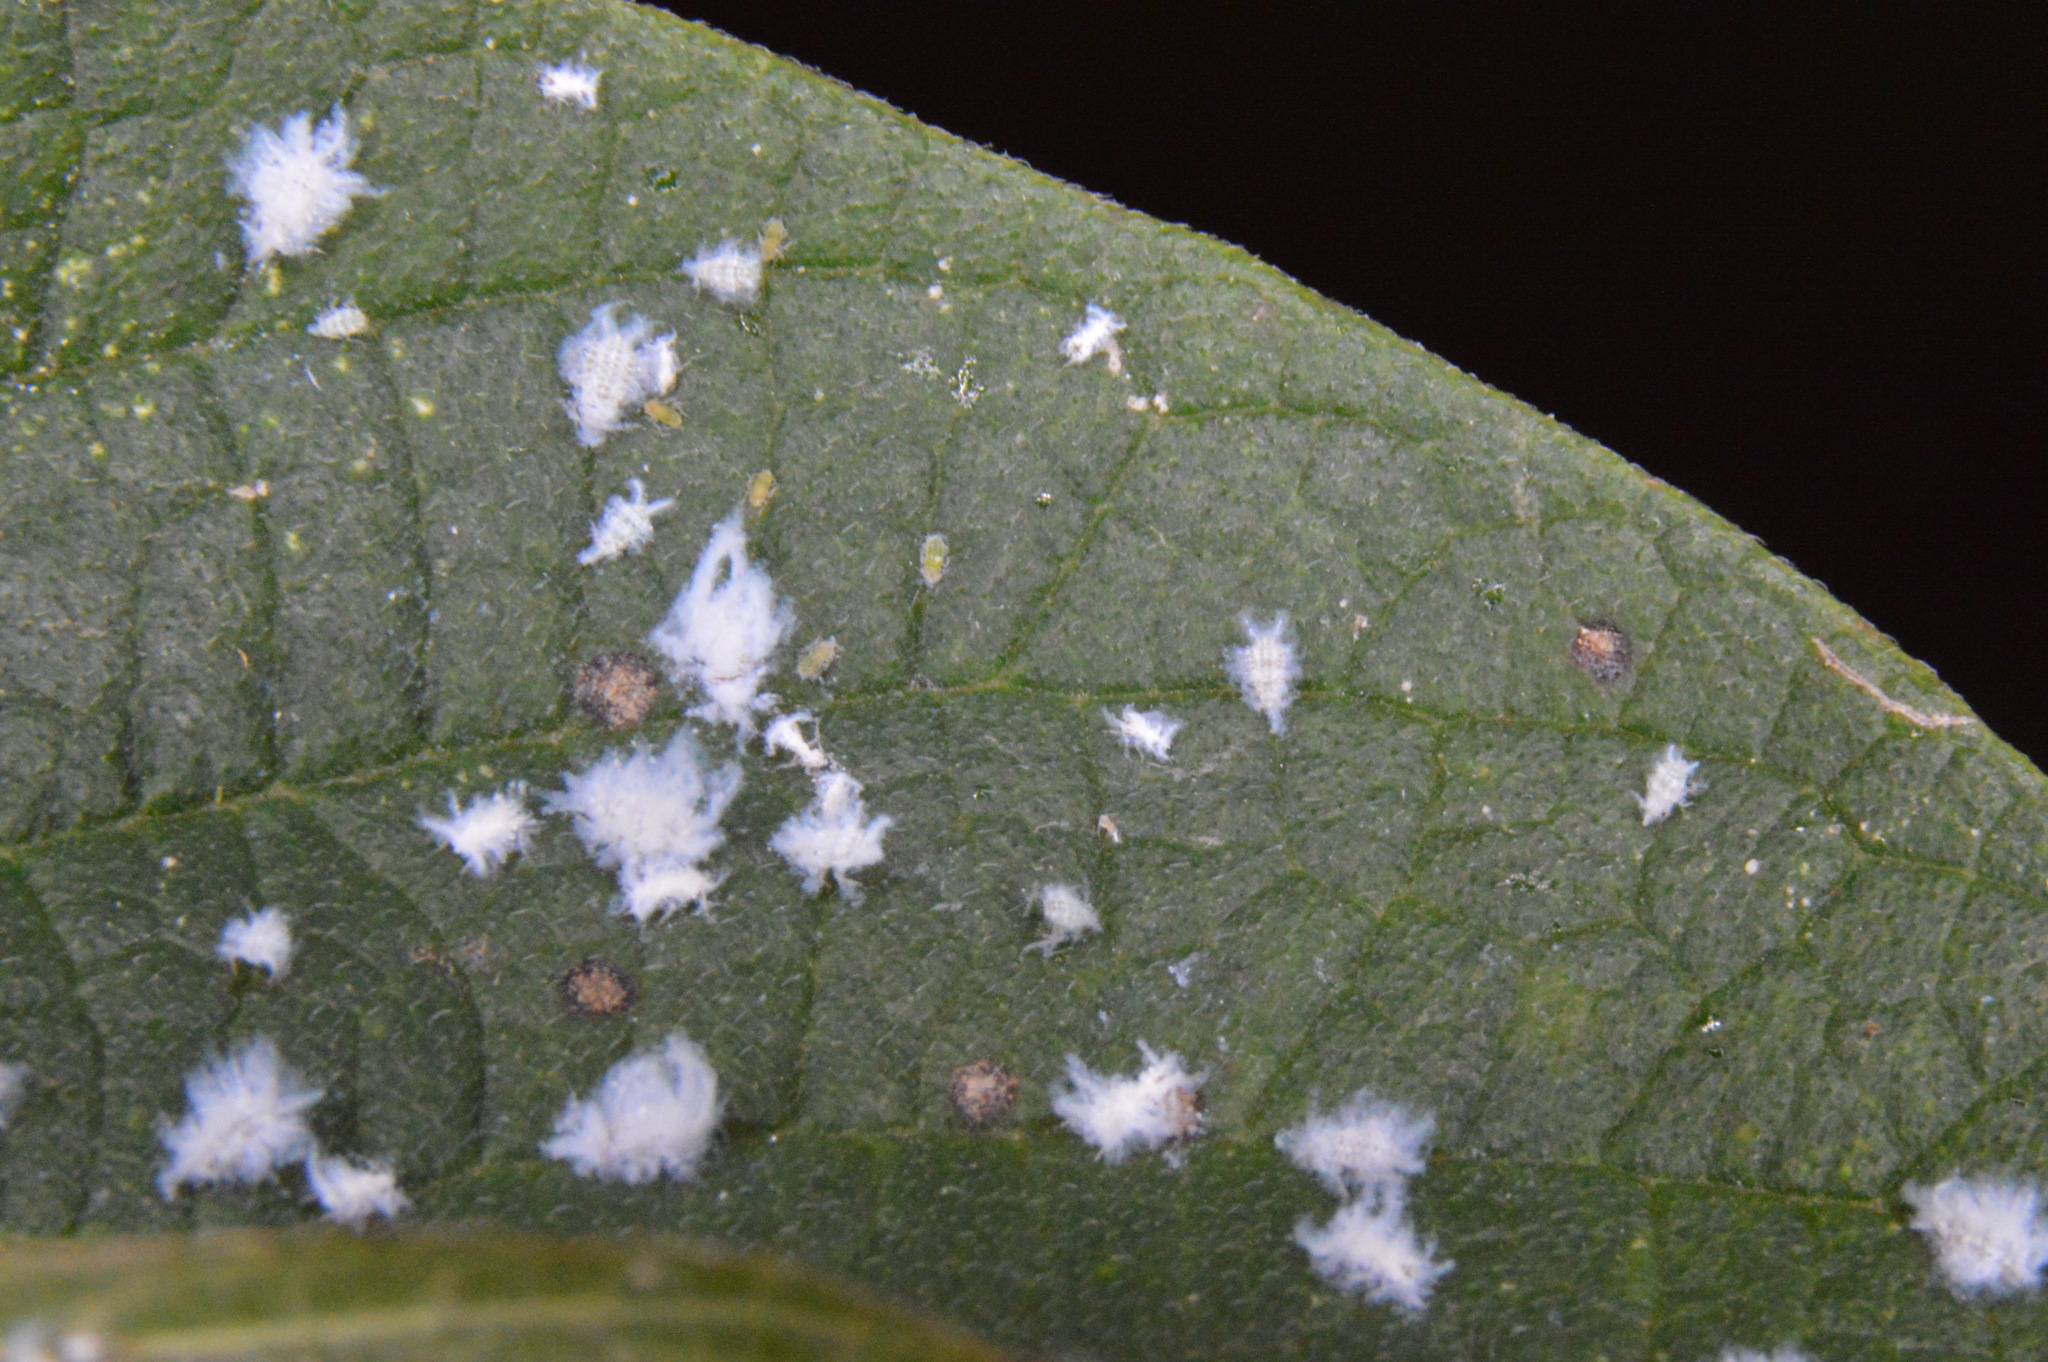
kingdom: Animalia
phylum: Arthropoda
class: Insecta
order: Hemiptera
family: Aphididae
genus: Shivaphis
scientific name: Shivaphis celti
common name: Asian wooly hackberry aphid
